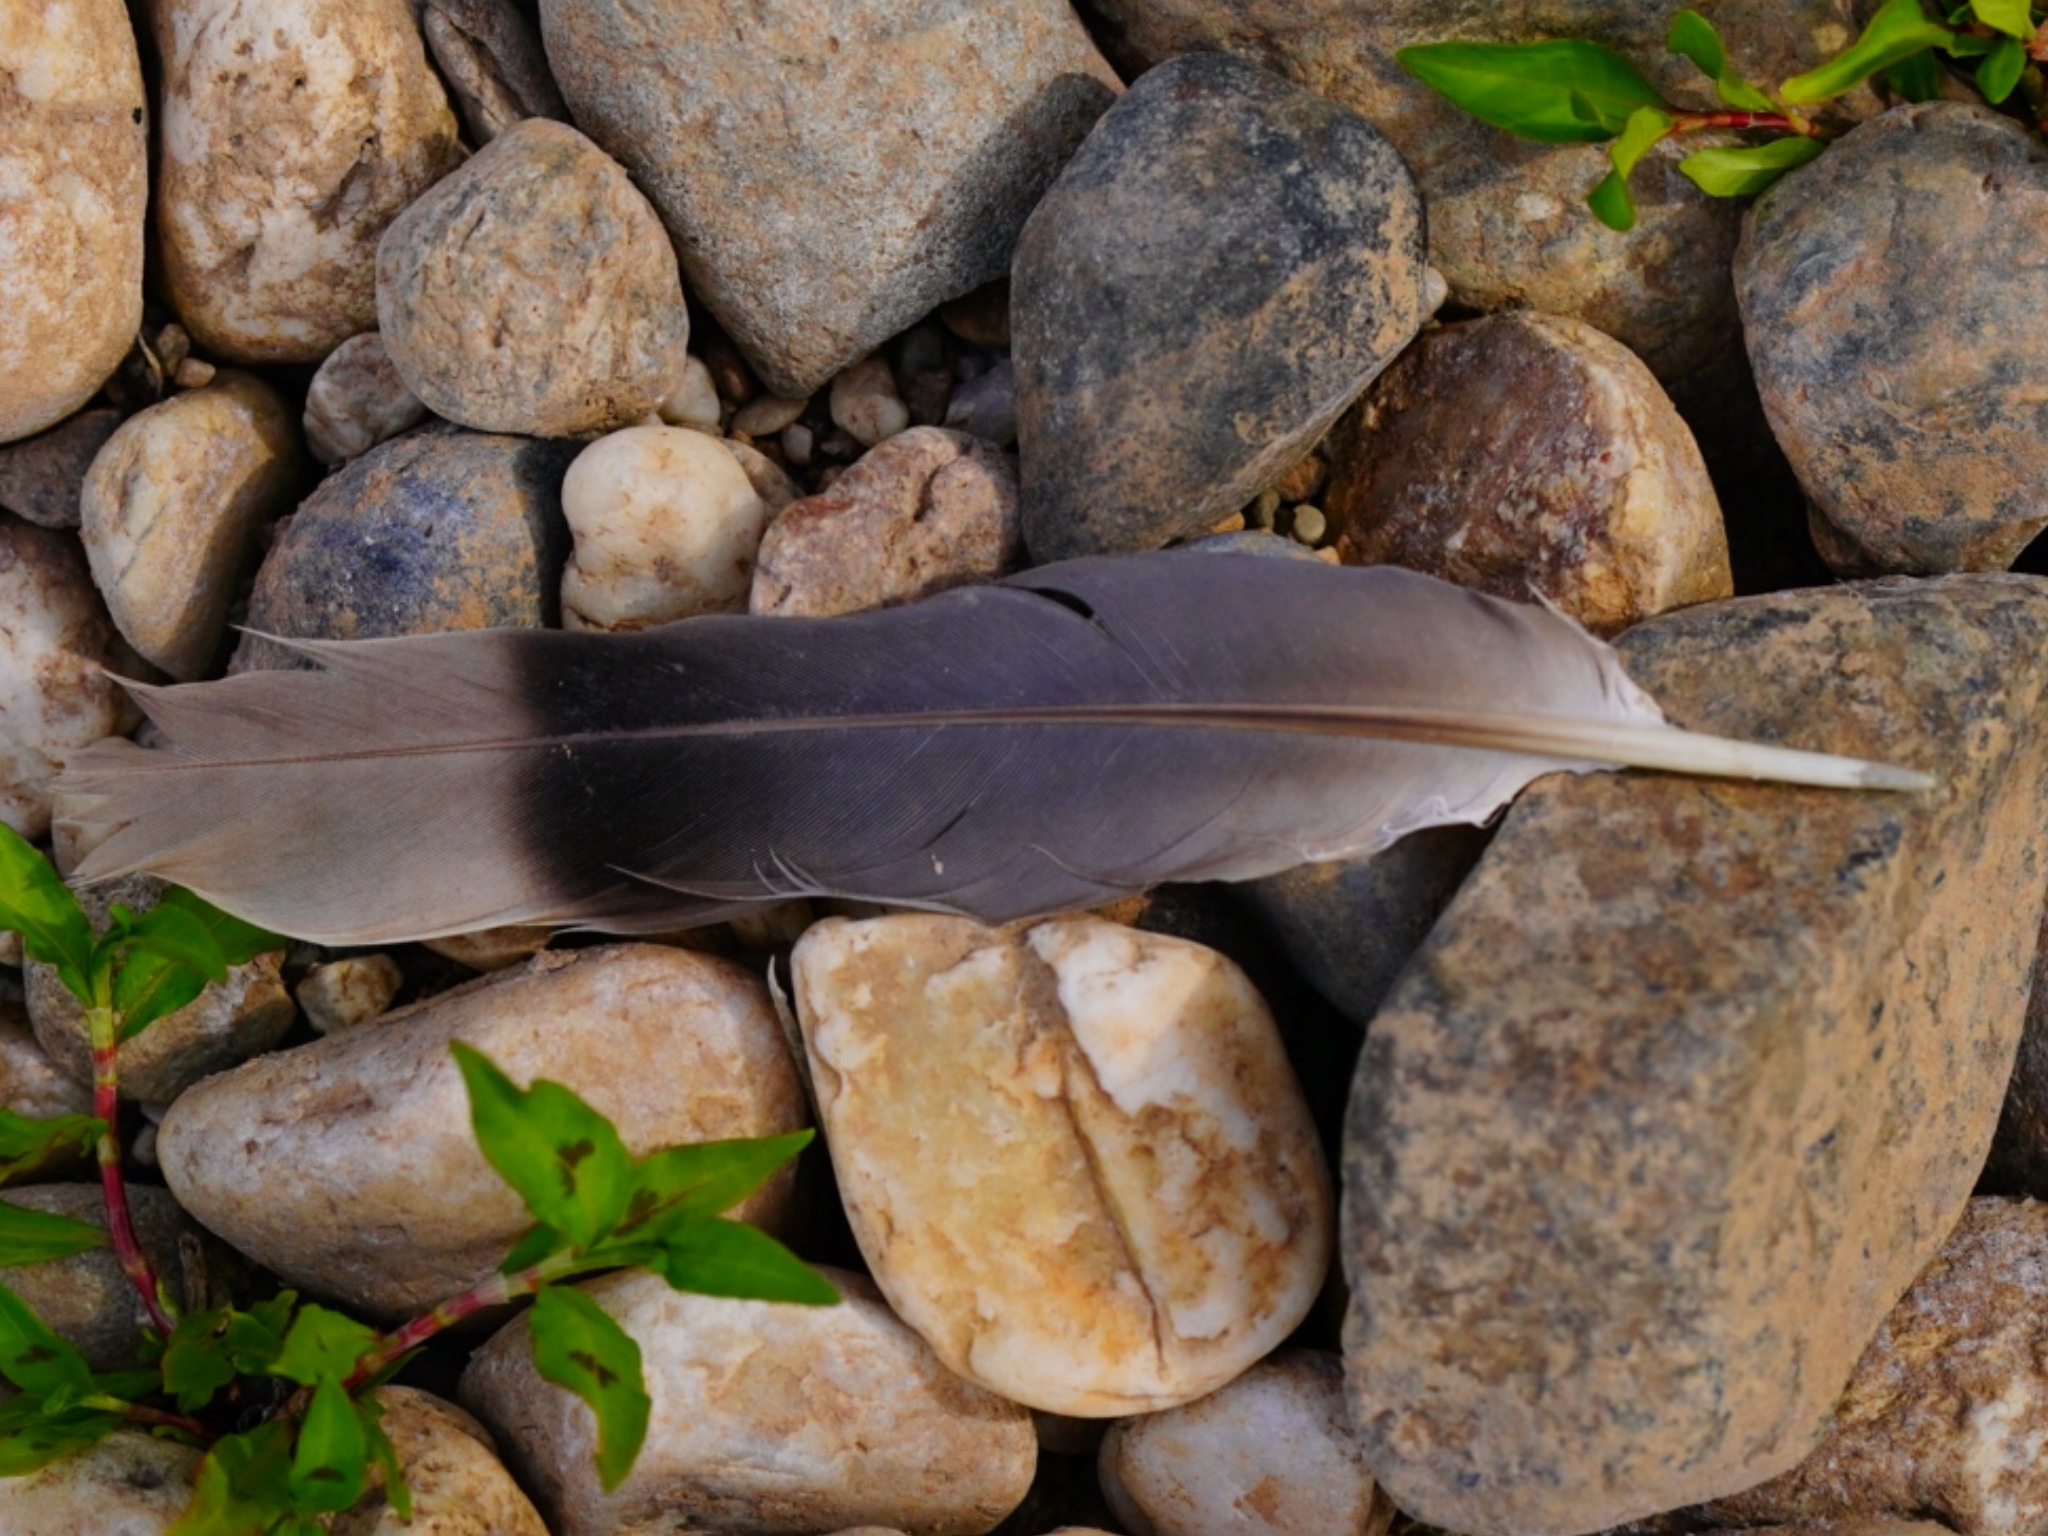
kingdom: Animalia
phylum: Chordata
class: Aves
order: Columbiformes
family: Columbidae
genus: Patagioenas
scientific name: Patagioenas fasciata
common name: Band-tailed pigeon
